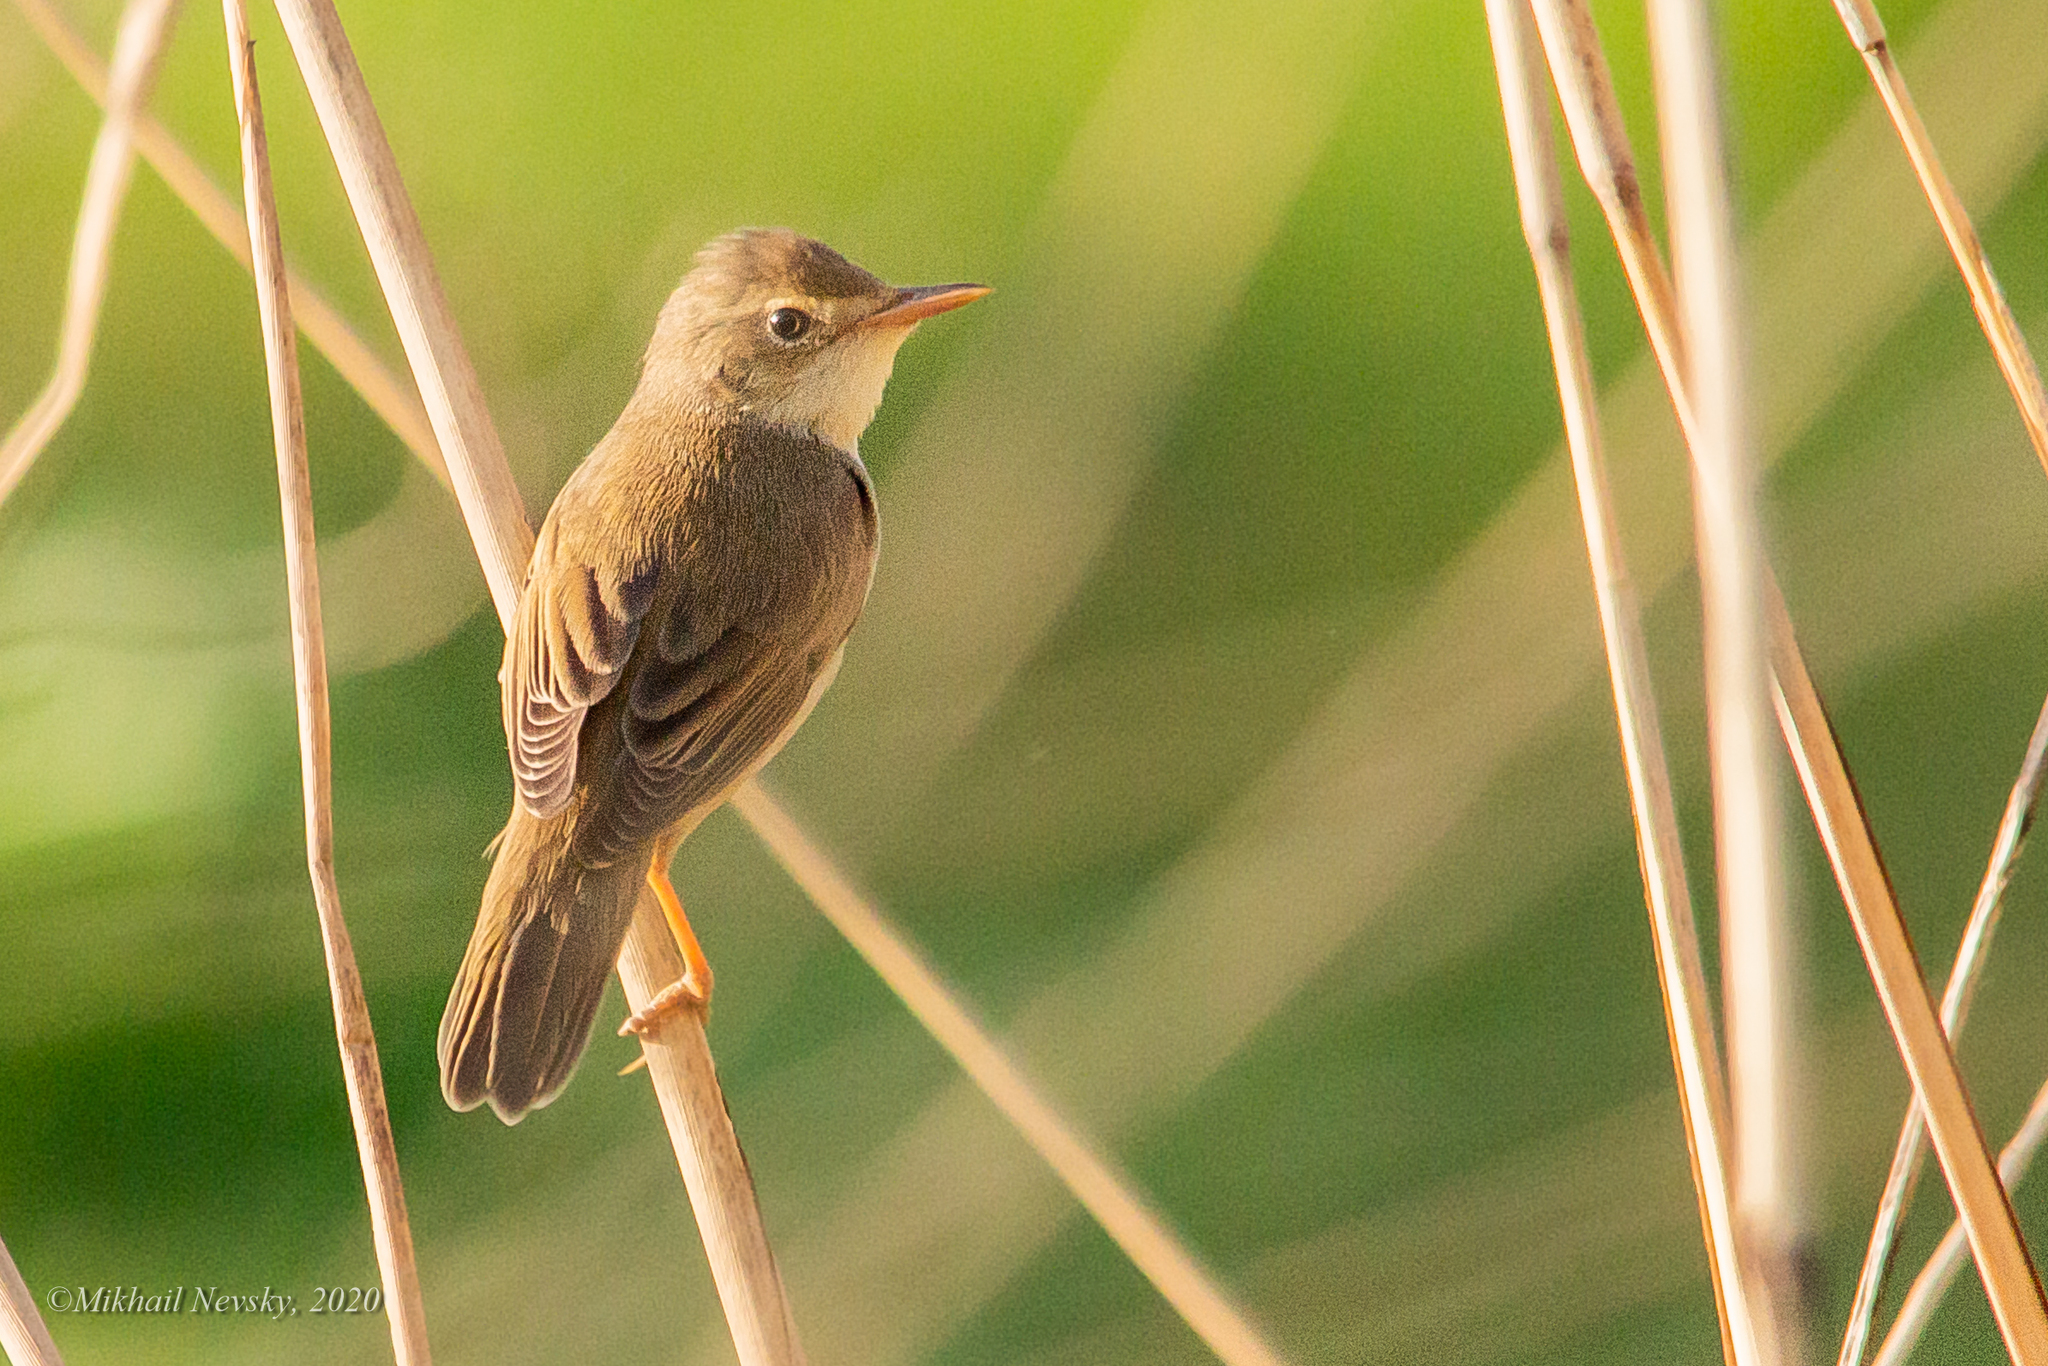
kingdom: Animalia
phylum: Chordata
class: Aves
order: Passeriformes
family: Acrocephalidae
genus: Acrocephalus
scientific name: Acrocephalus palustris
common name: Marsh warbler
